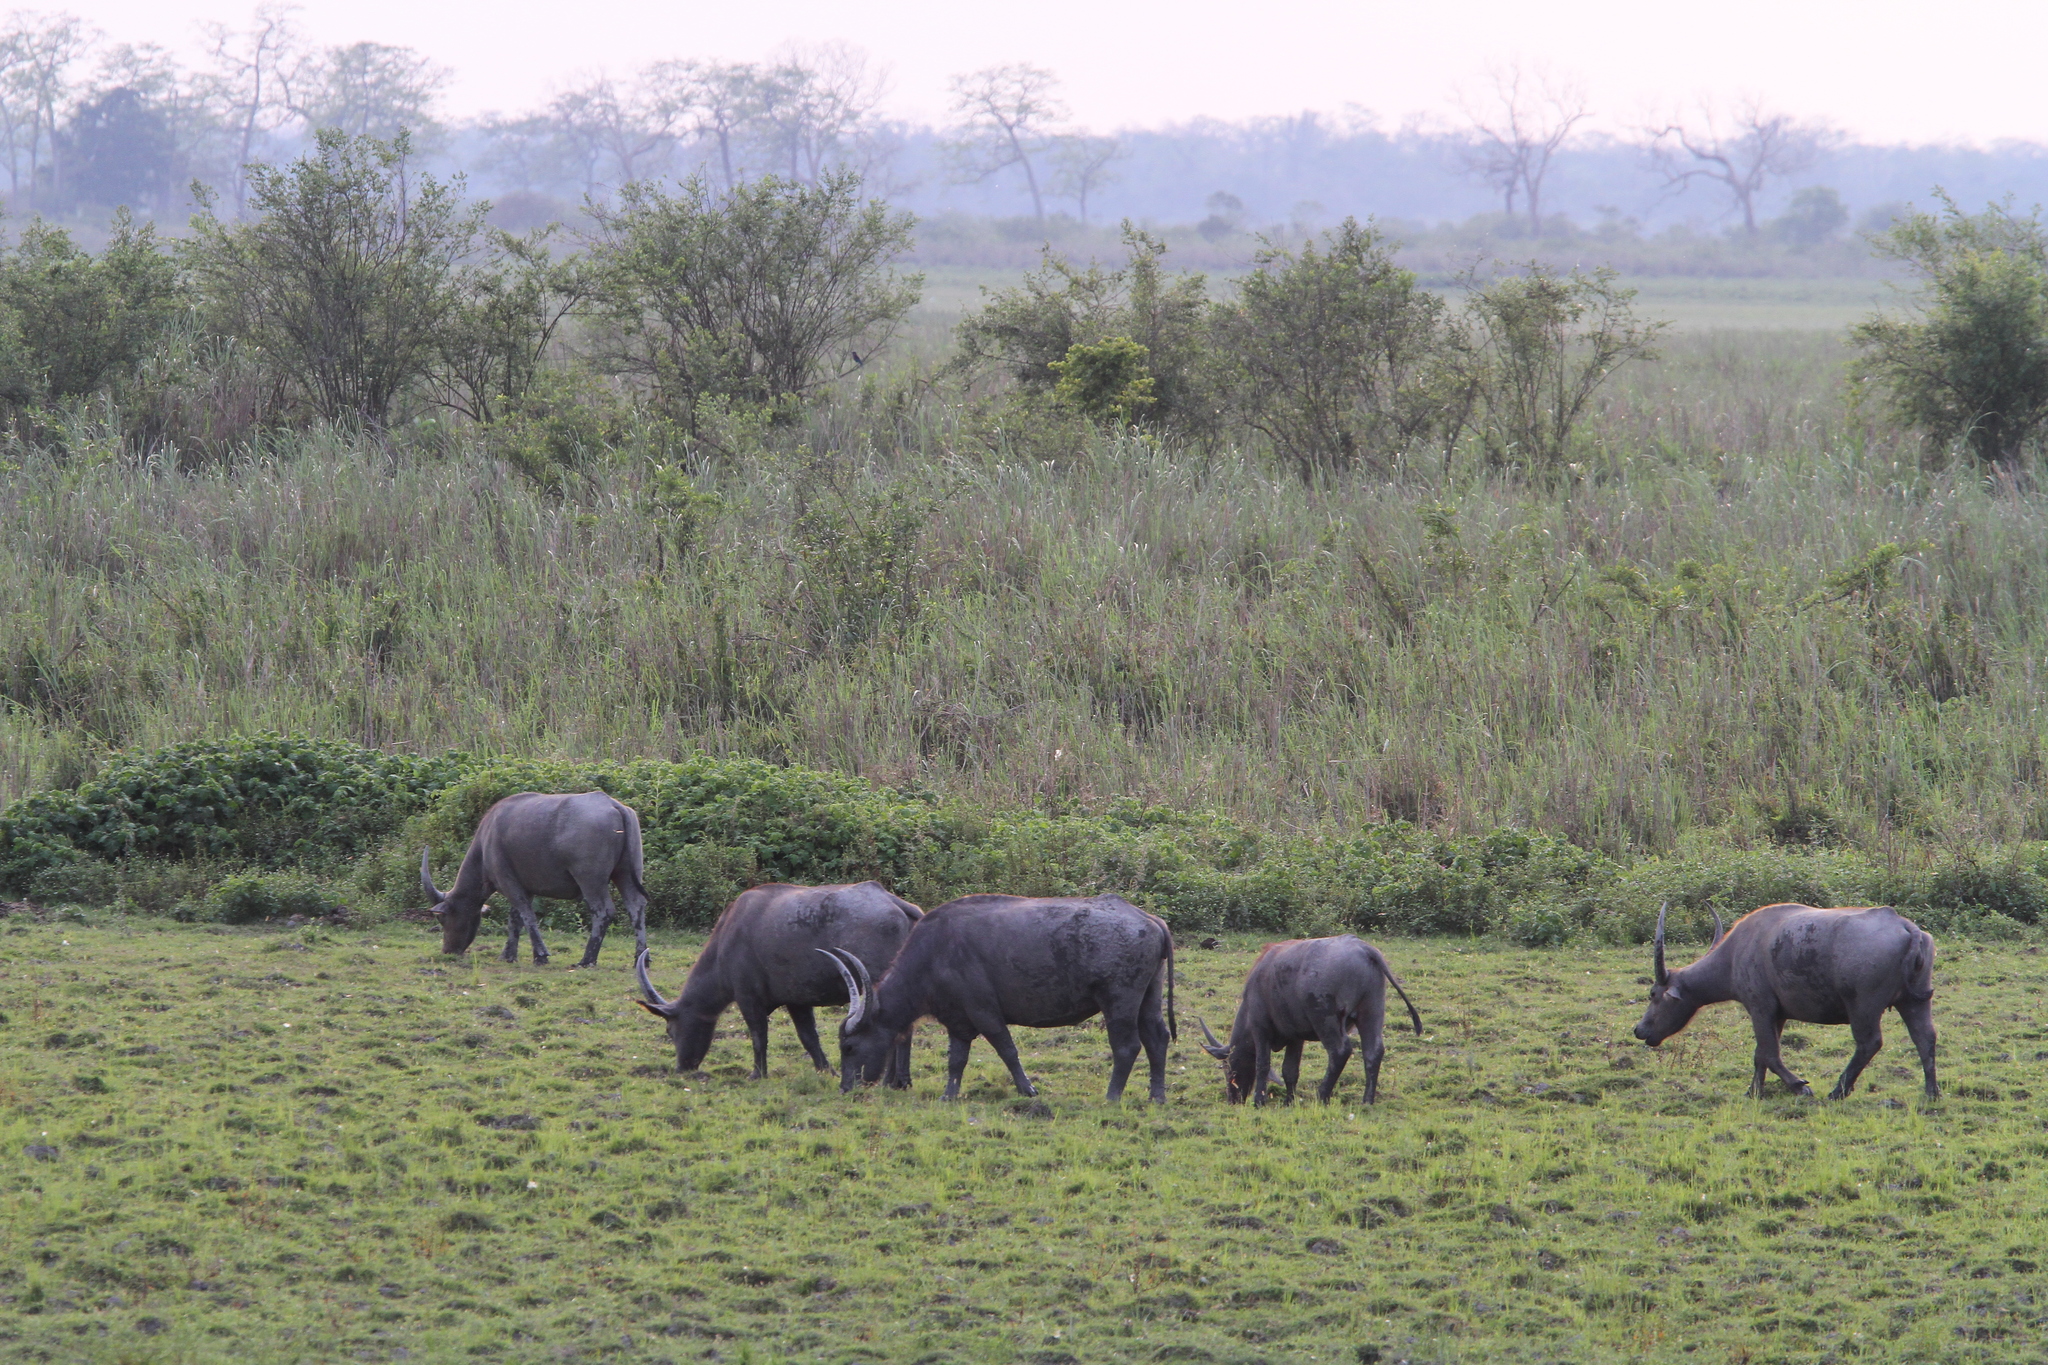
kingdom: Animalia
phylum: Chordata
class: Mammalia
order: Artiodactyla
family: Bovidae
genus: Bubalus
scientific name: Bubalus bubalis
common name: Water buffalo
